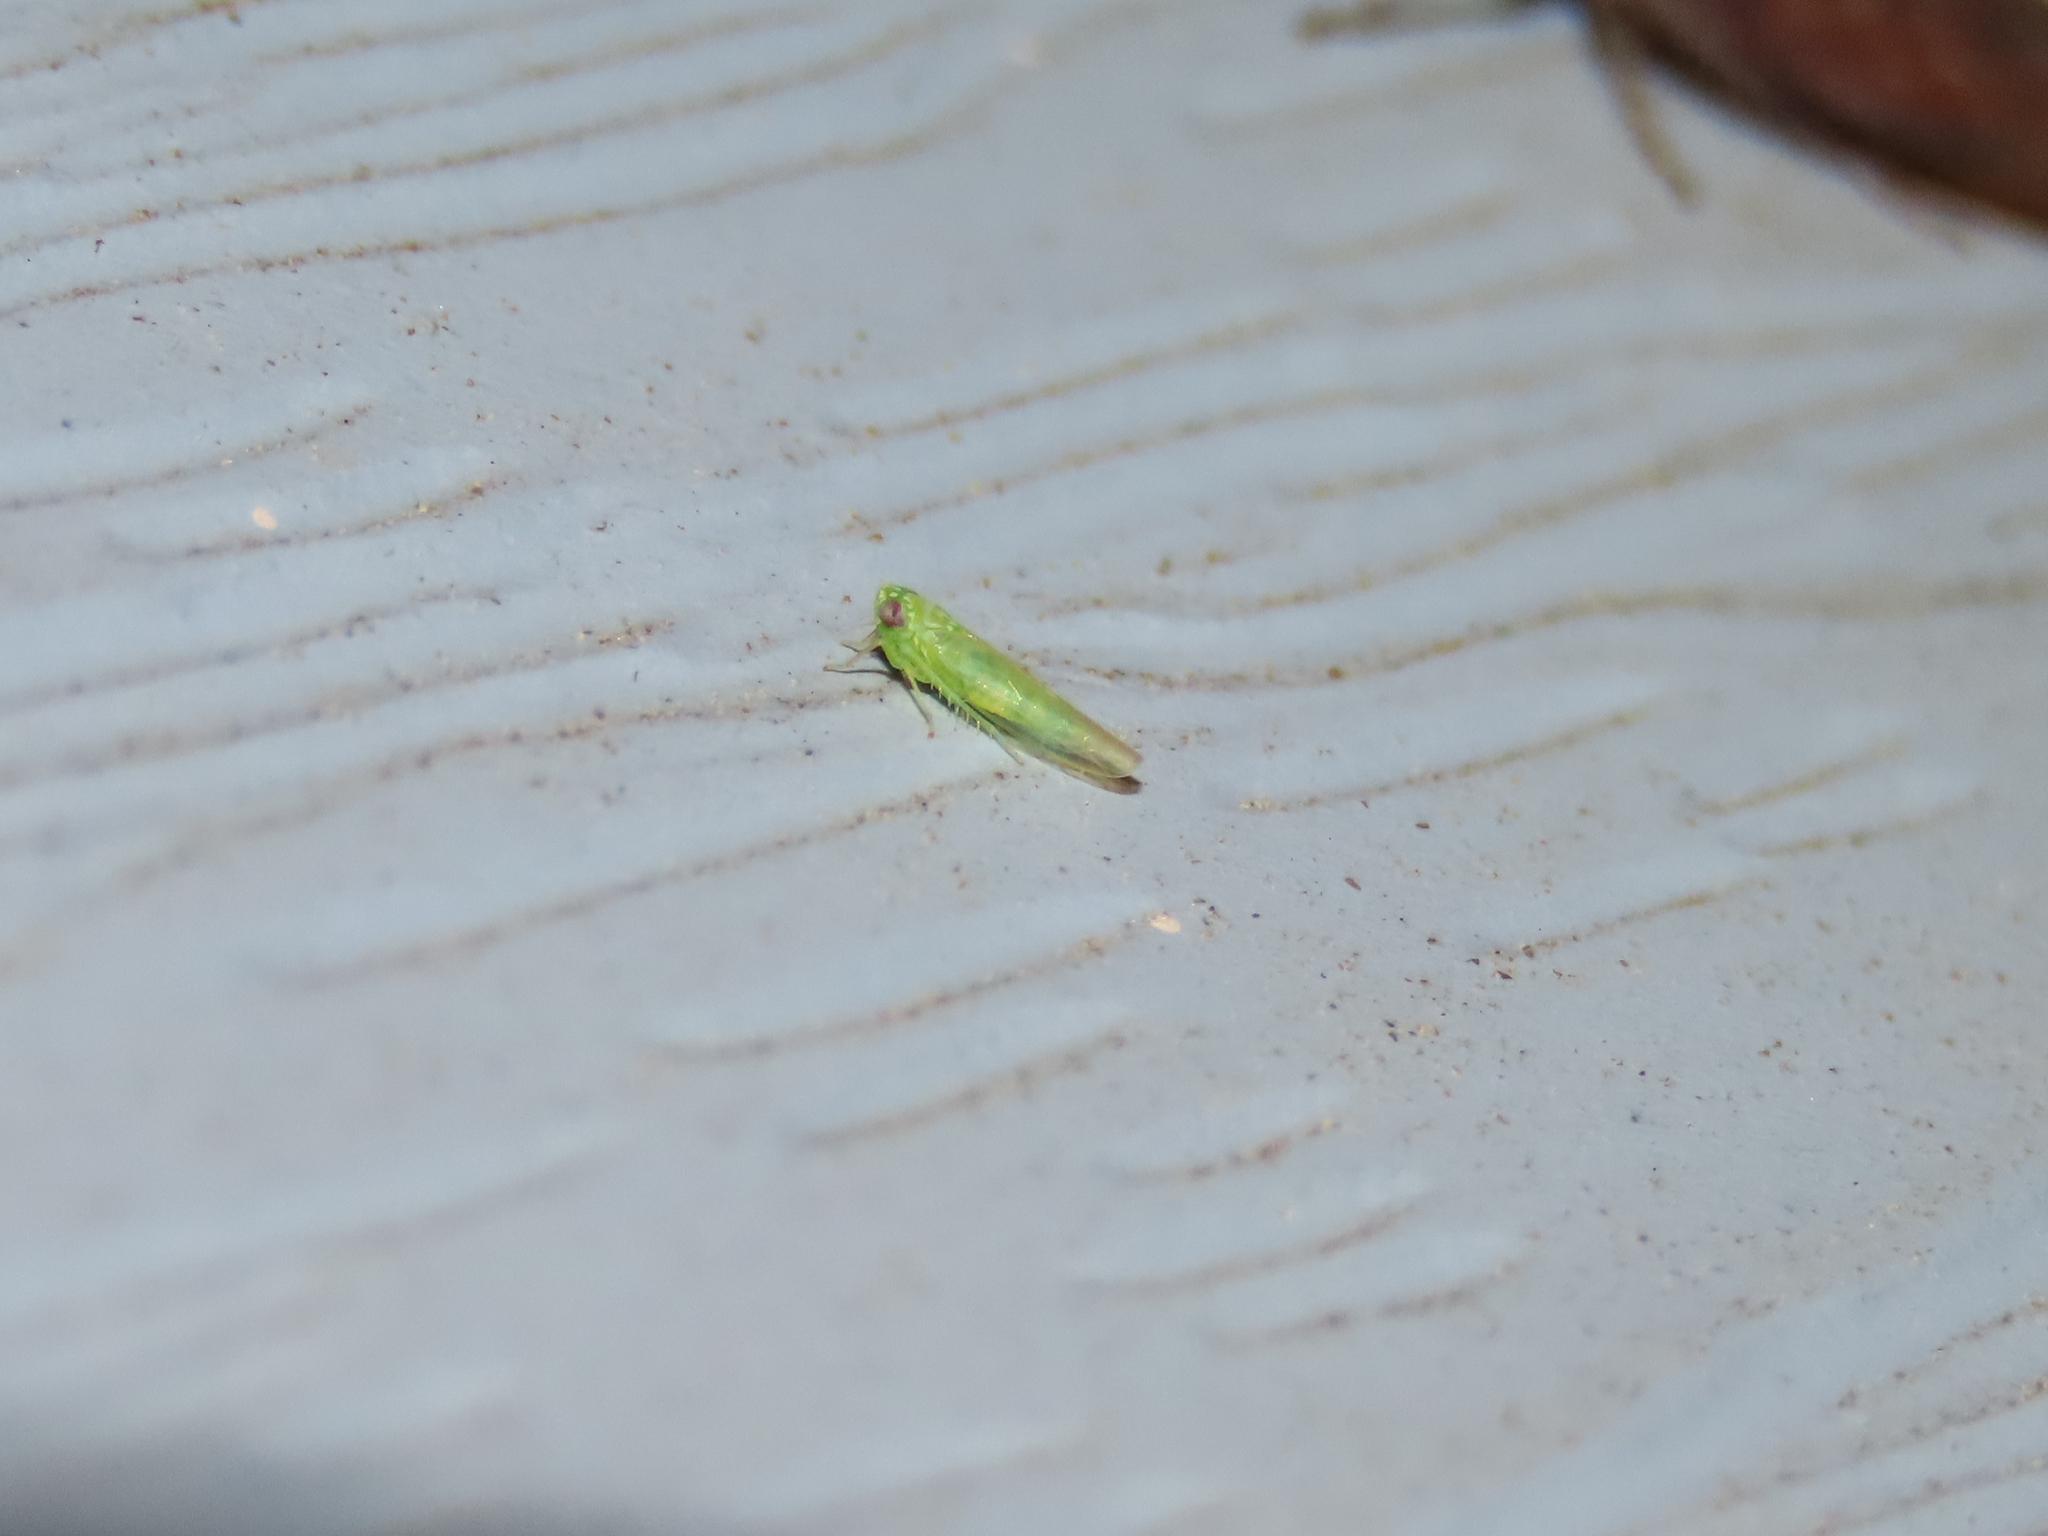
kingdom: Animalia
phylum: Arthropoda
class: Insecta
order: Hemiptera
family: Cicadellidae
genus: Empoasca
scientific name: Empoasca fabae
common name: Potato leafhopper
